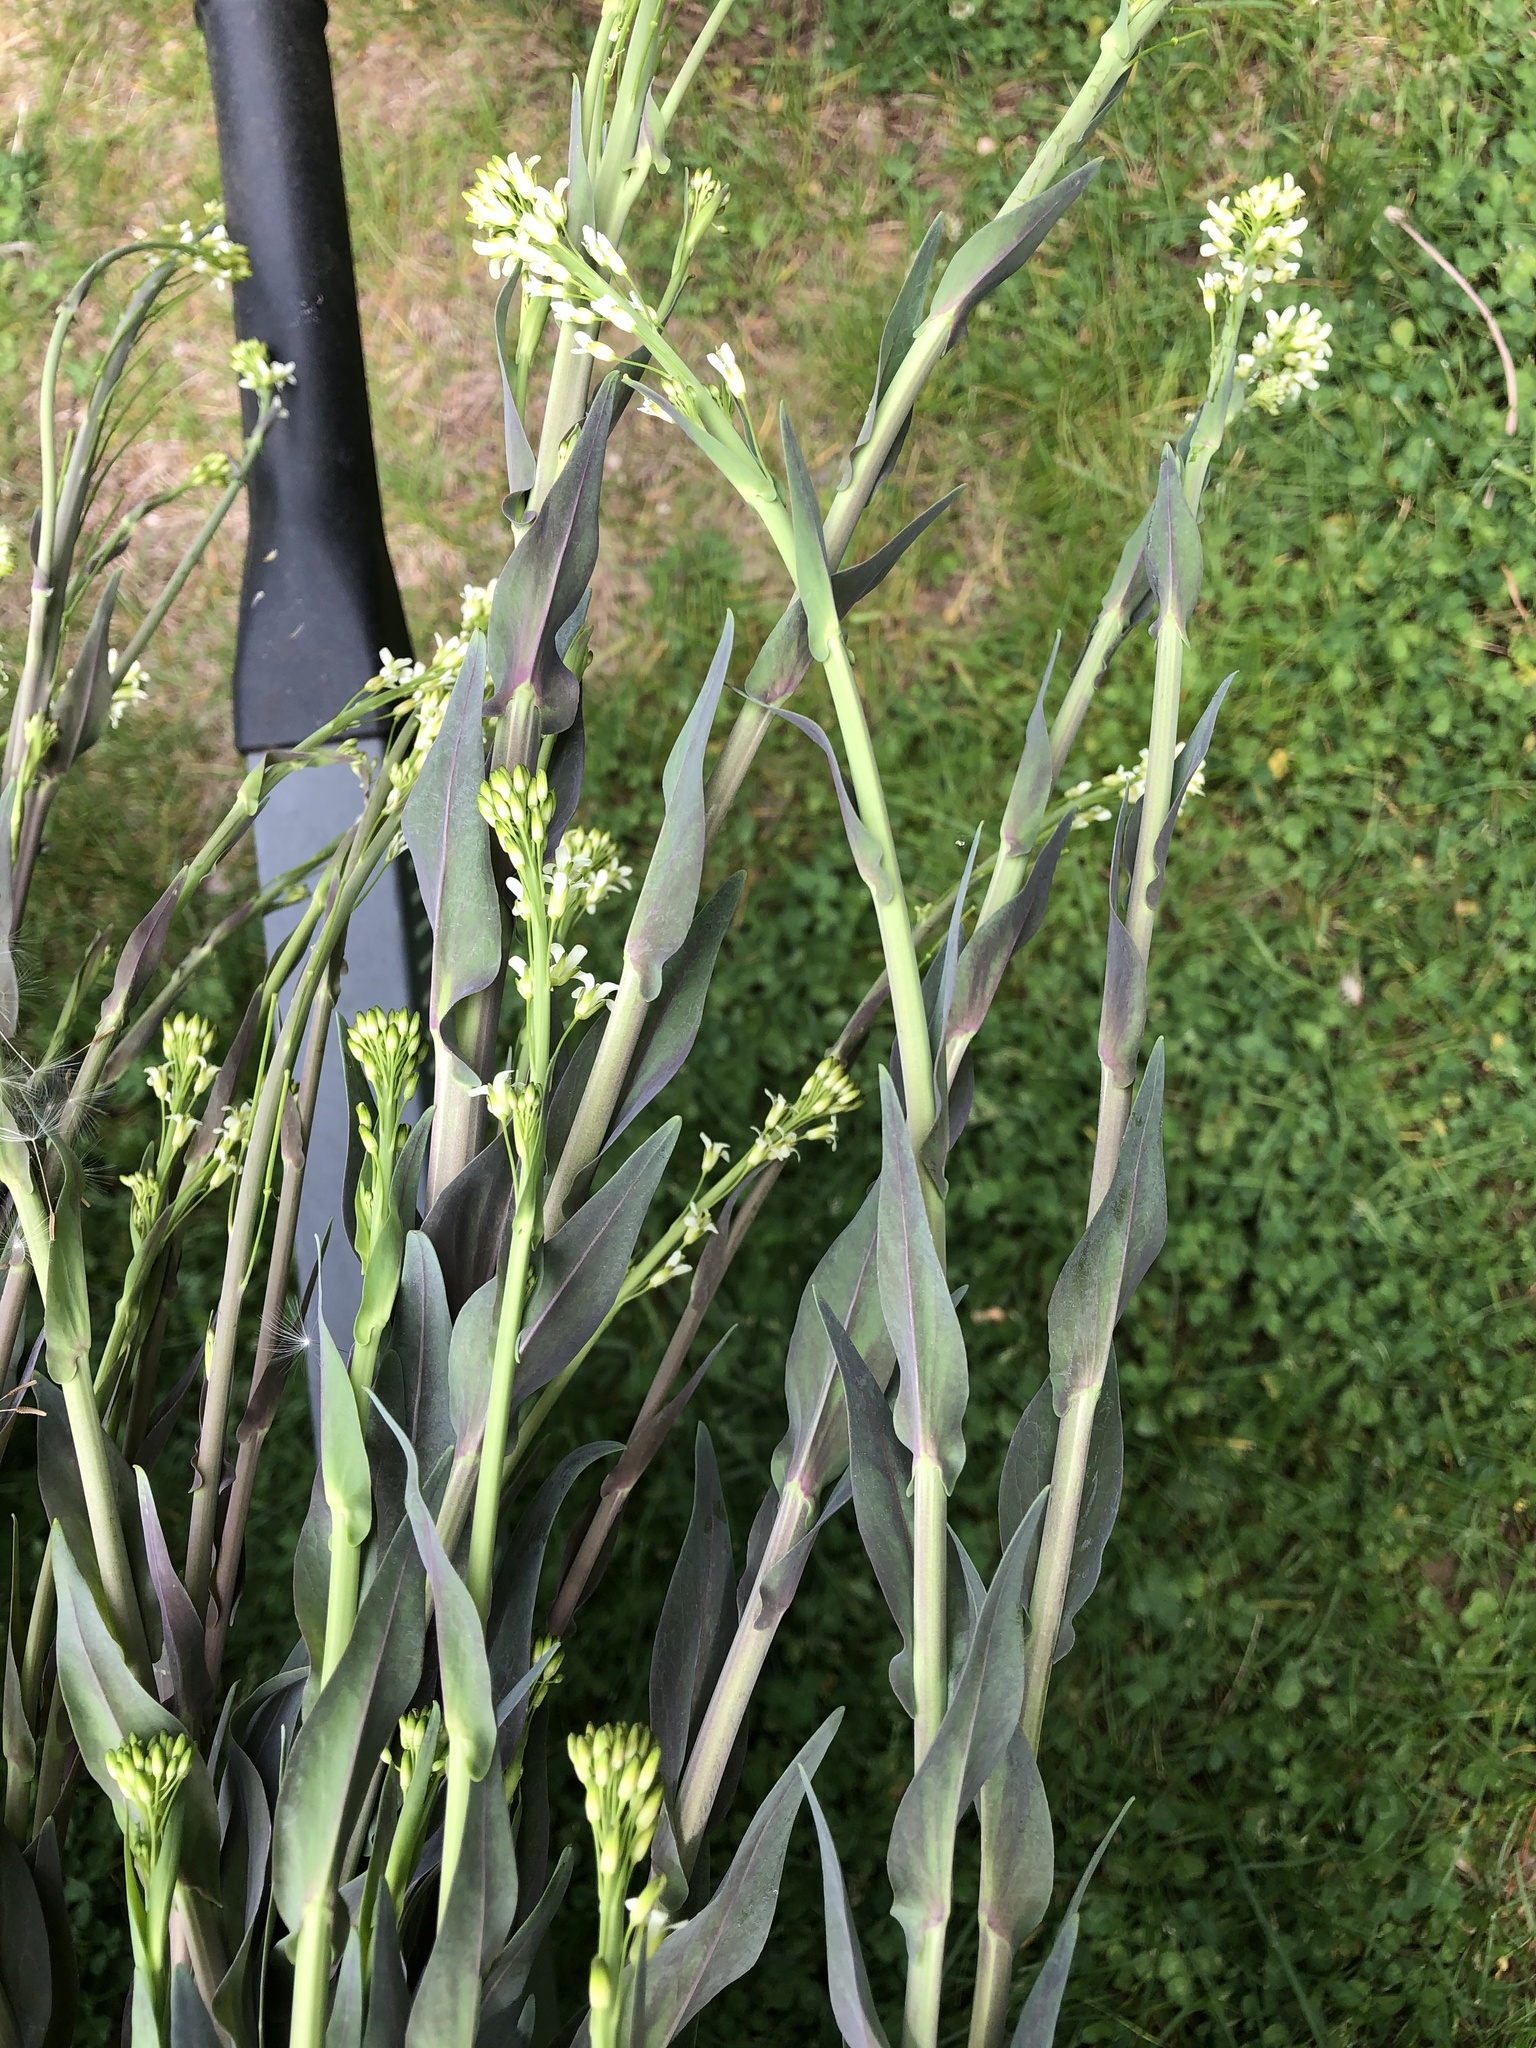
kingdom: Plantae
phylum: Tracheophyta
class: Magnoliopsida
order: Brassicales
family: Brassicaceae
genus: Turritis
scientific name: Turritis glabra
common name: Tower rockcress
